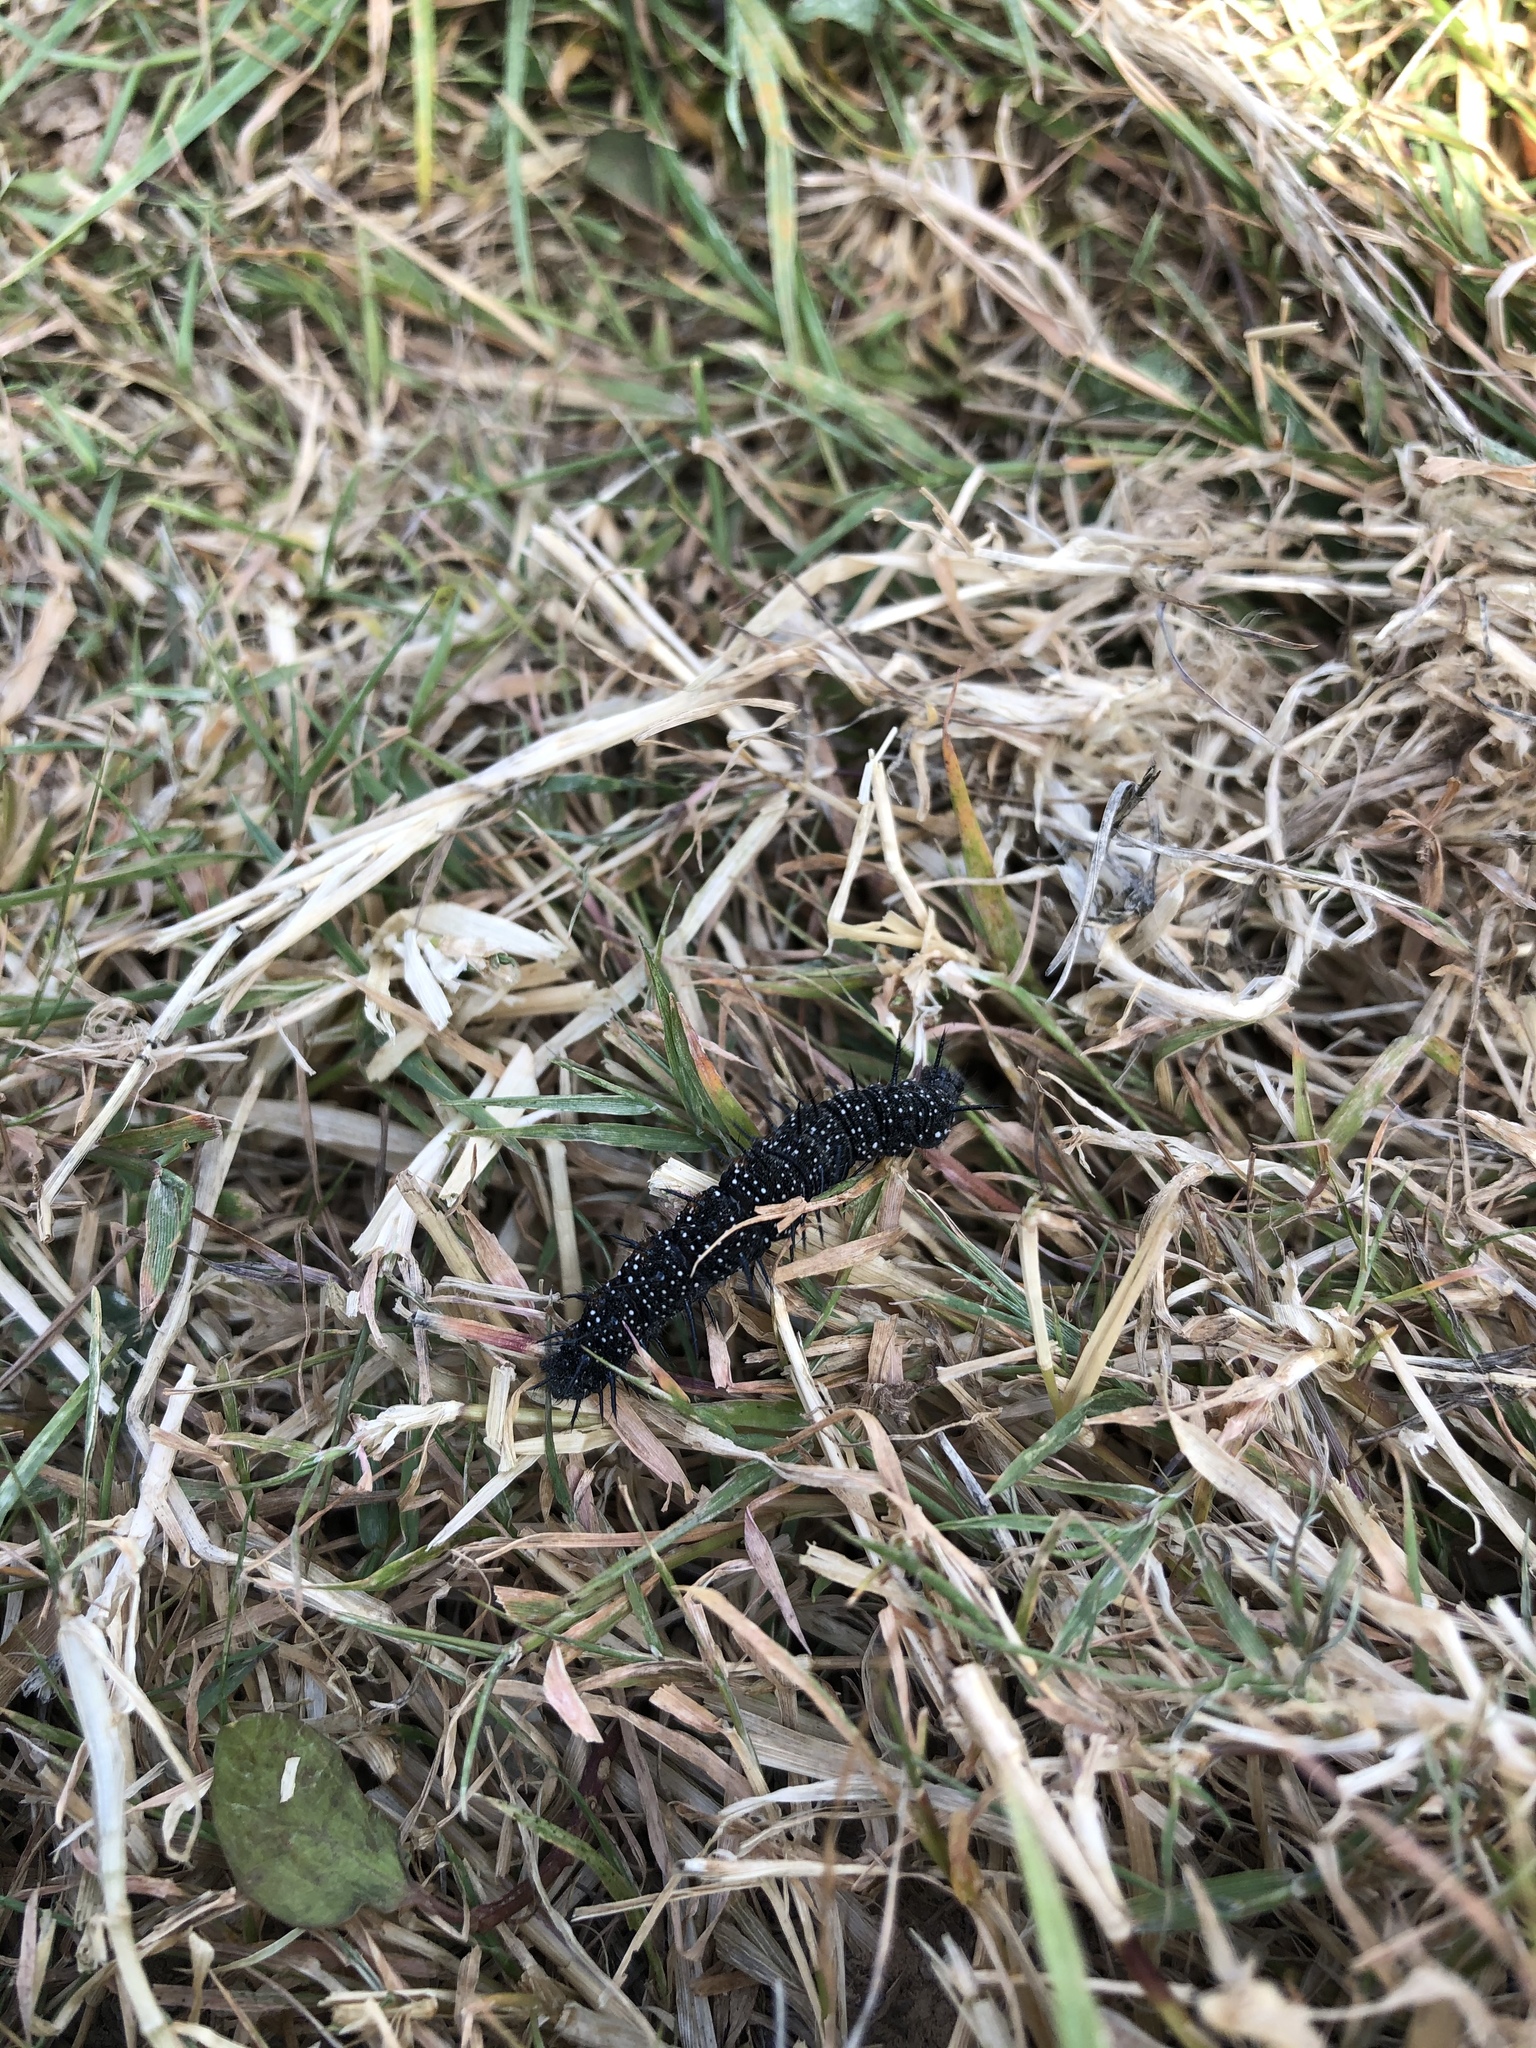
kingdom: Animalia
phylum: Arthropoda
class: Insecta
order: Lepidoptera
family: Nymphalidae
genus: Aglais
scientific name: Aglais io
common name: Peacock
